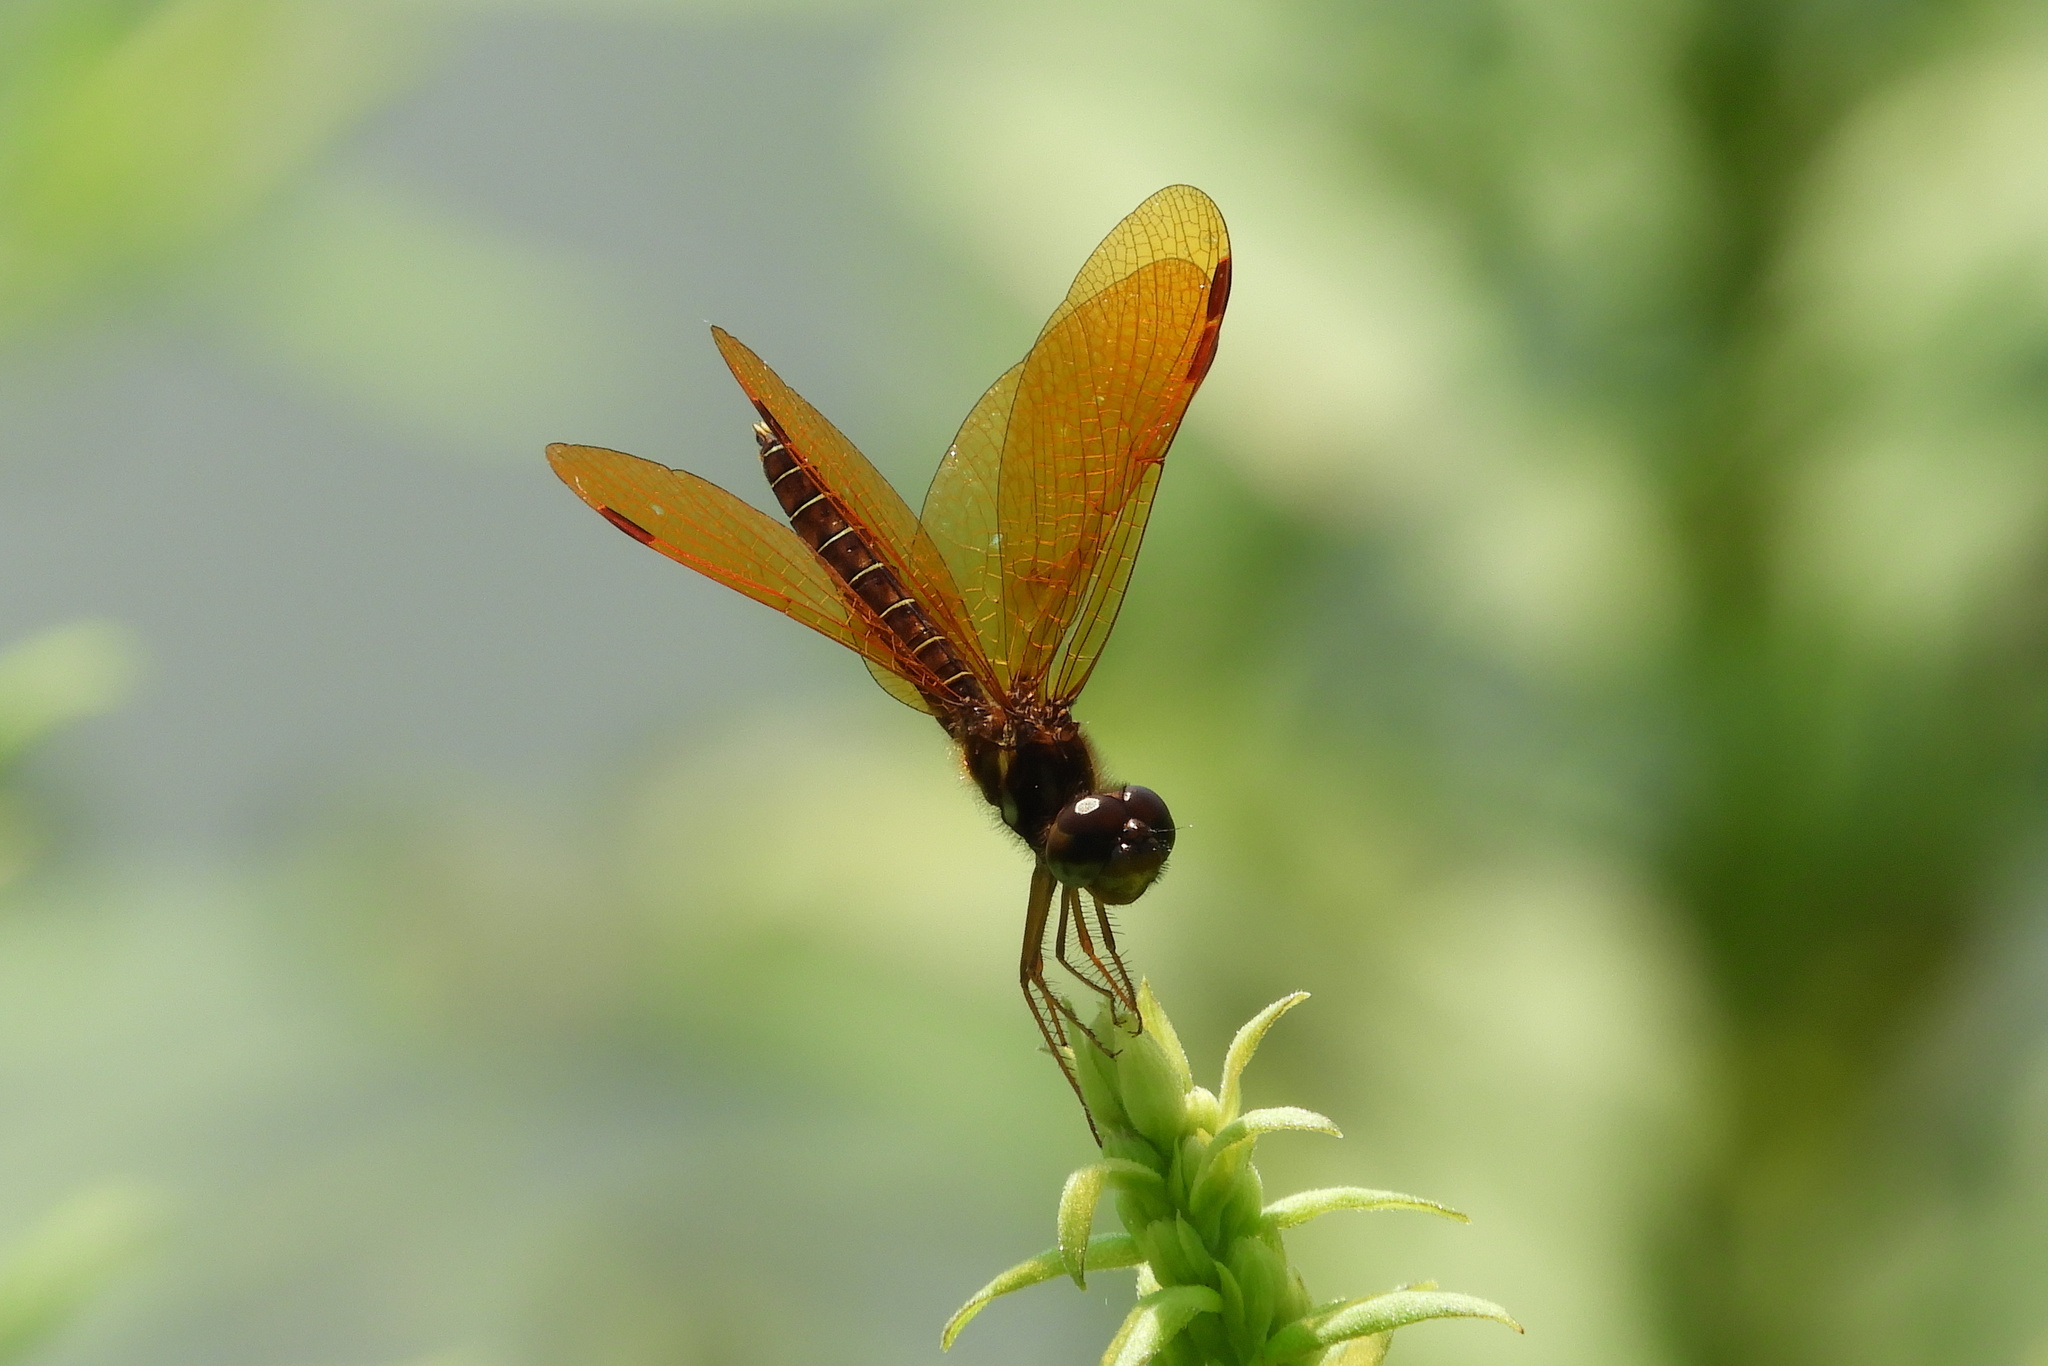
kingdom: Animalia
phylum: Arthropoda
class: Insecta
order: Odonata
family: Libellulidae
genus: Perithemis
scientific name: Perithemis tenera
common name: Eastern amberwing
